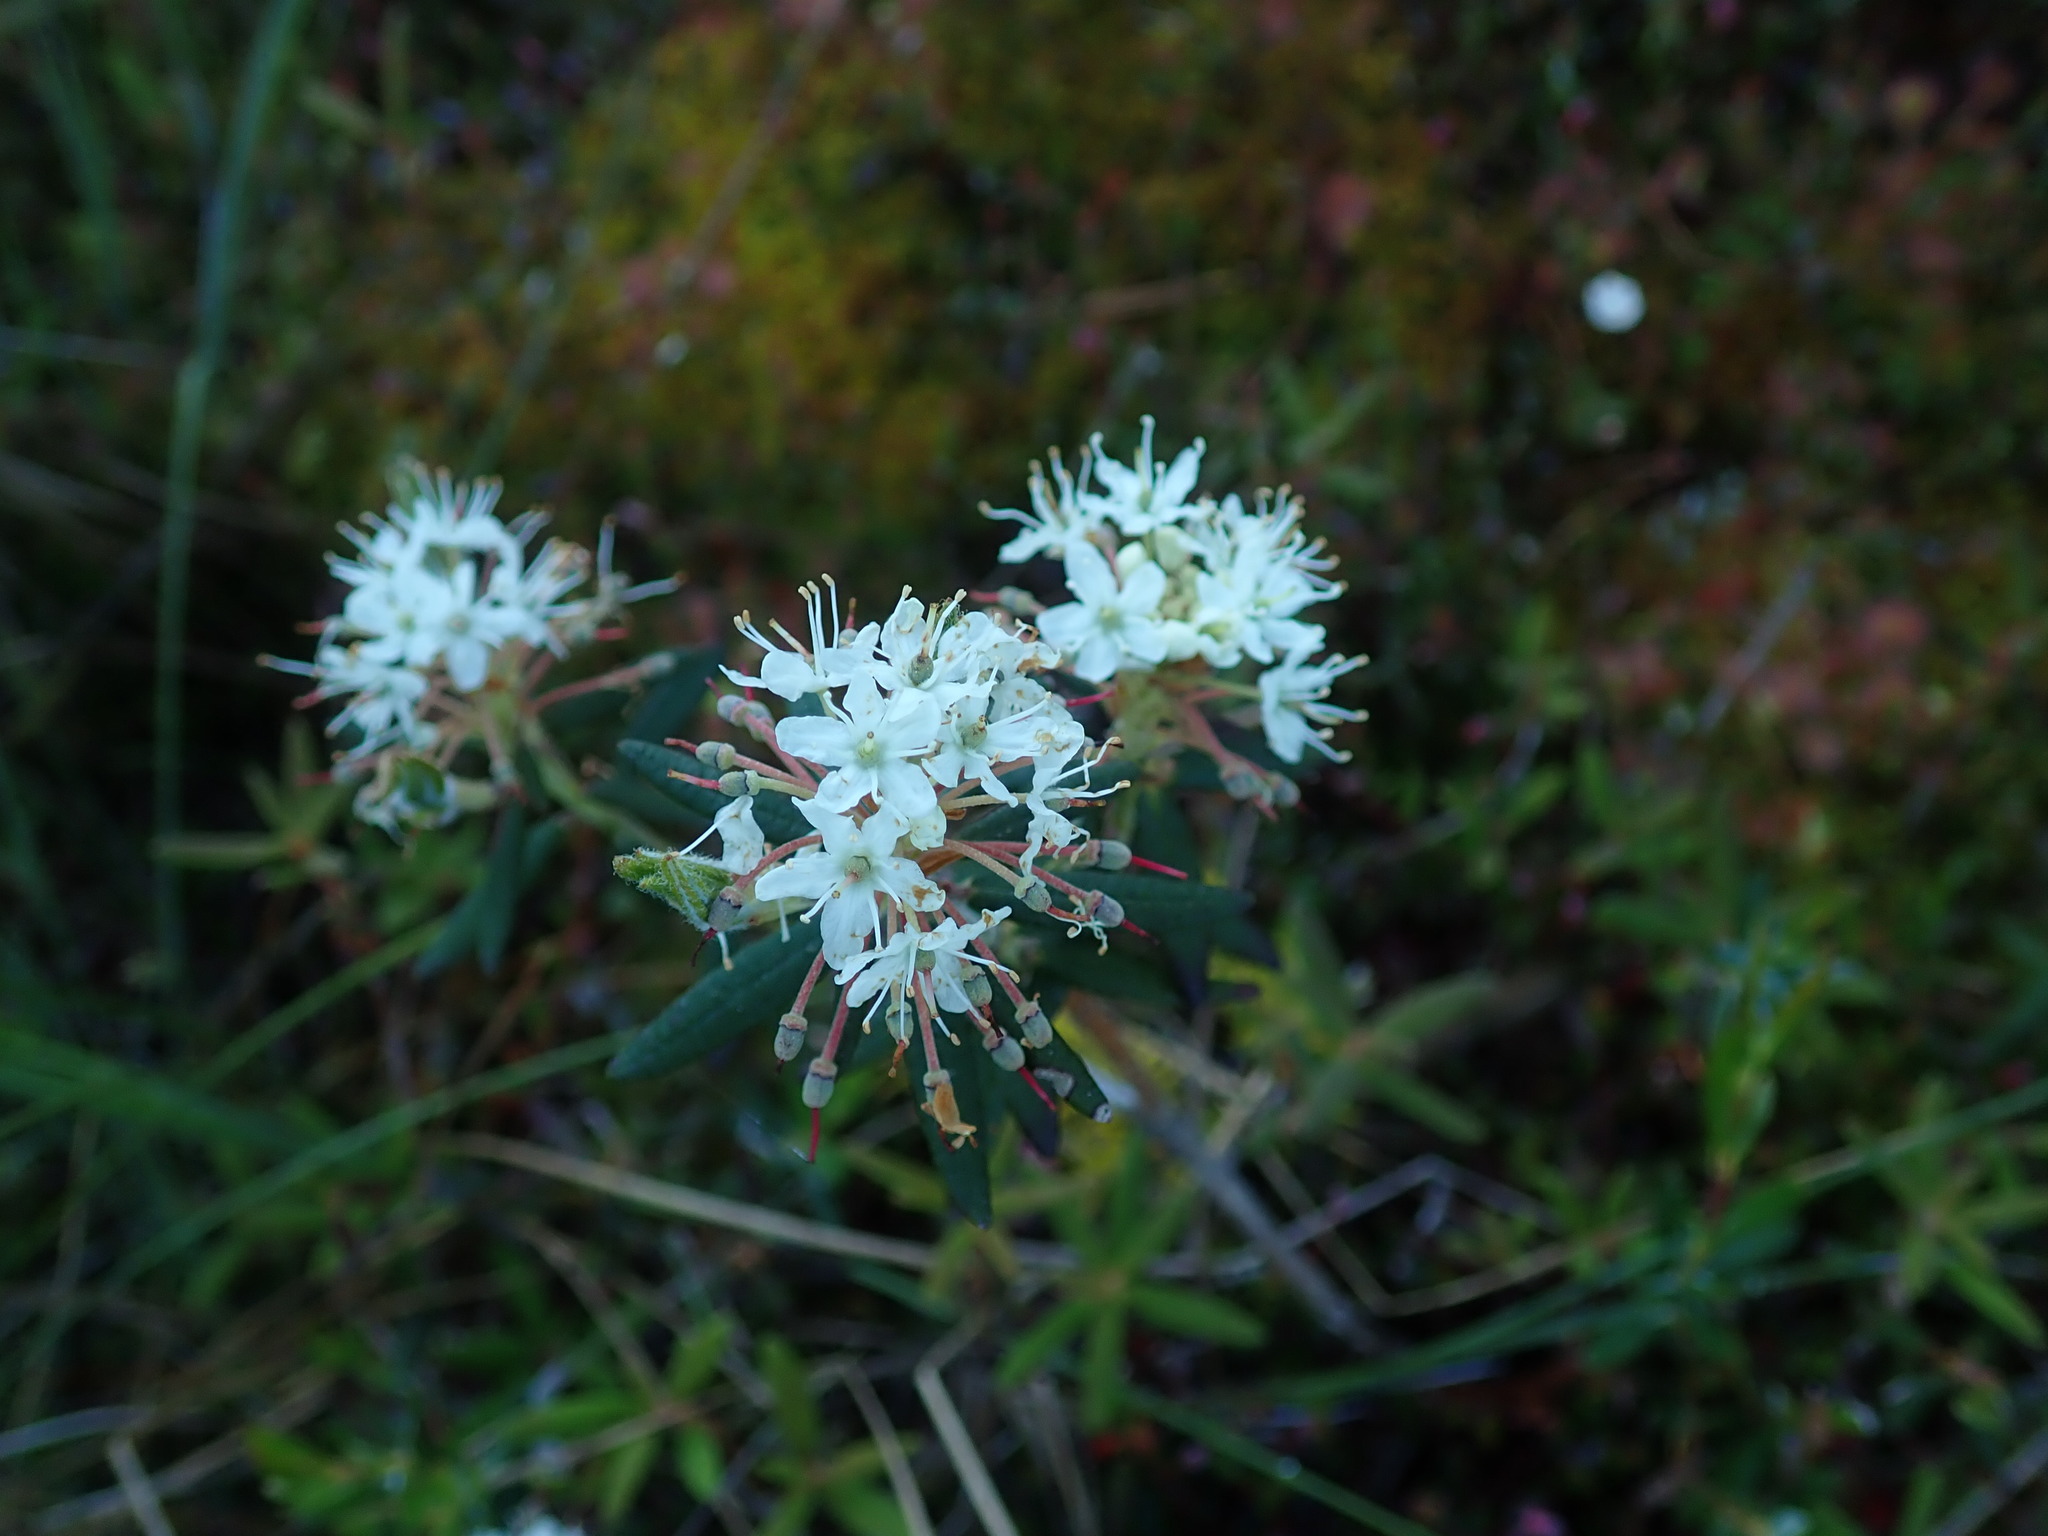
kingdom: Plantae
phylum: Tracheophyta
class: Magnoliopsida
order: Ericales
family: Ericaceae
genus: Rhododendron
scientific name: Rhododendron groenlandicum
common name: Bog labrador tea
